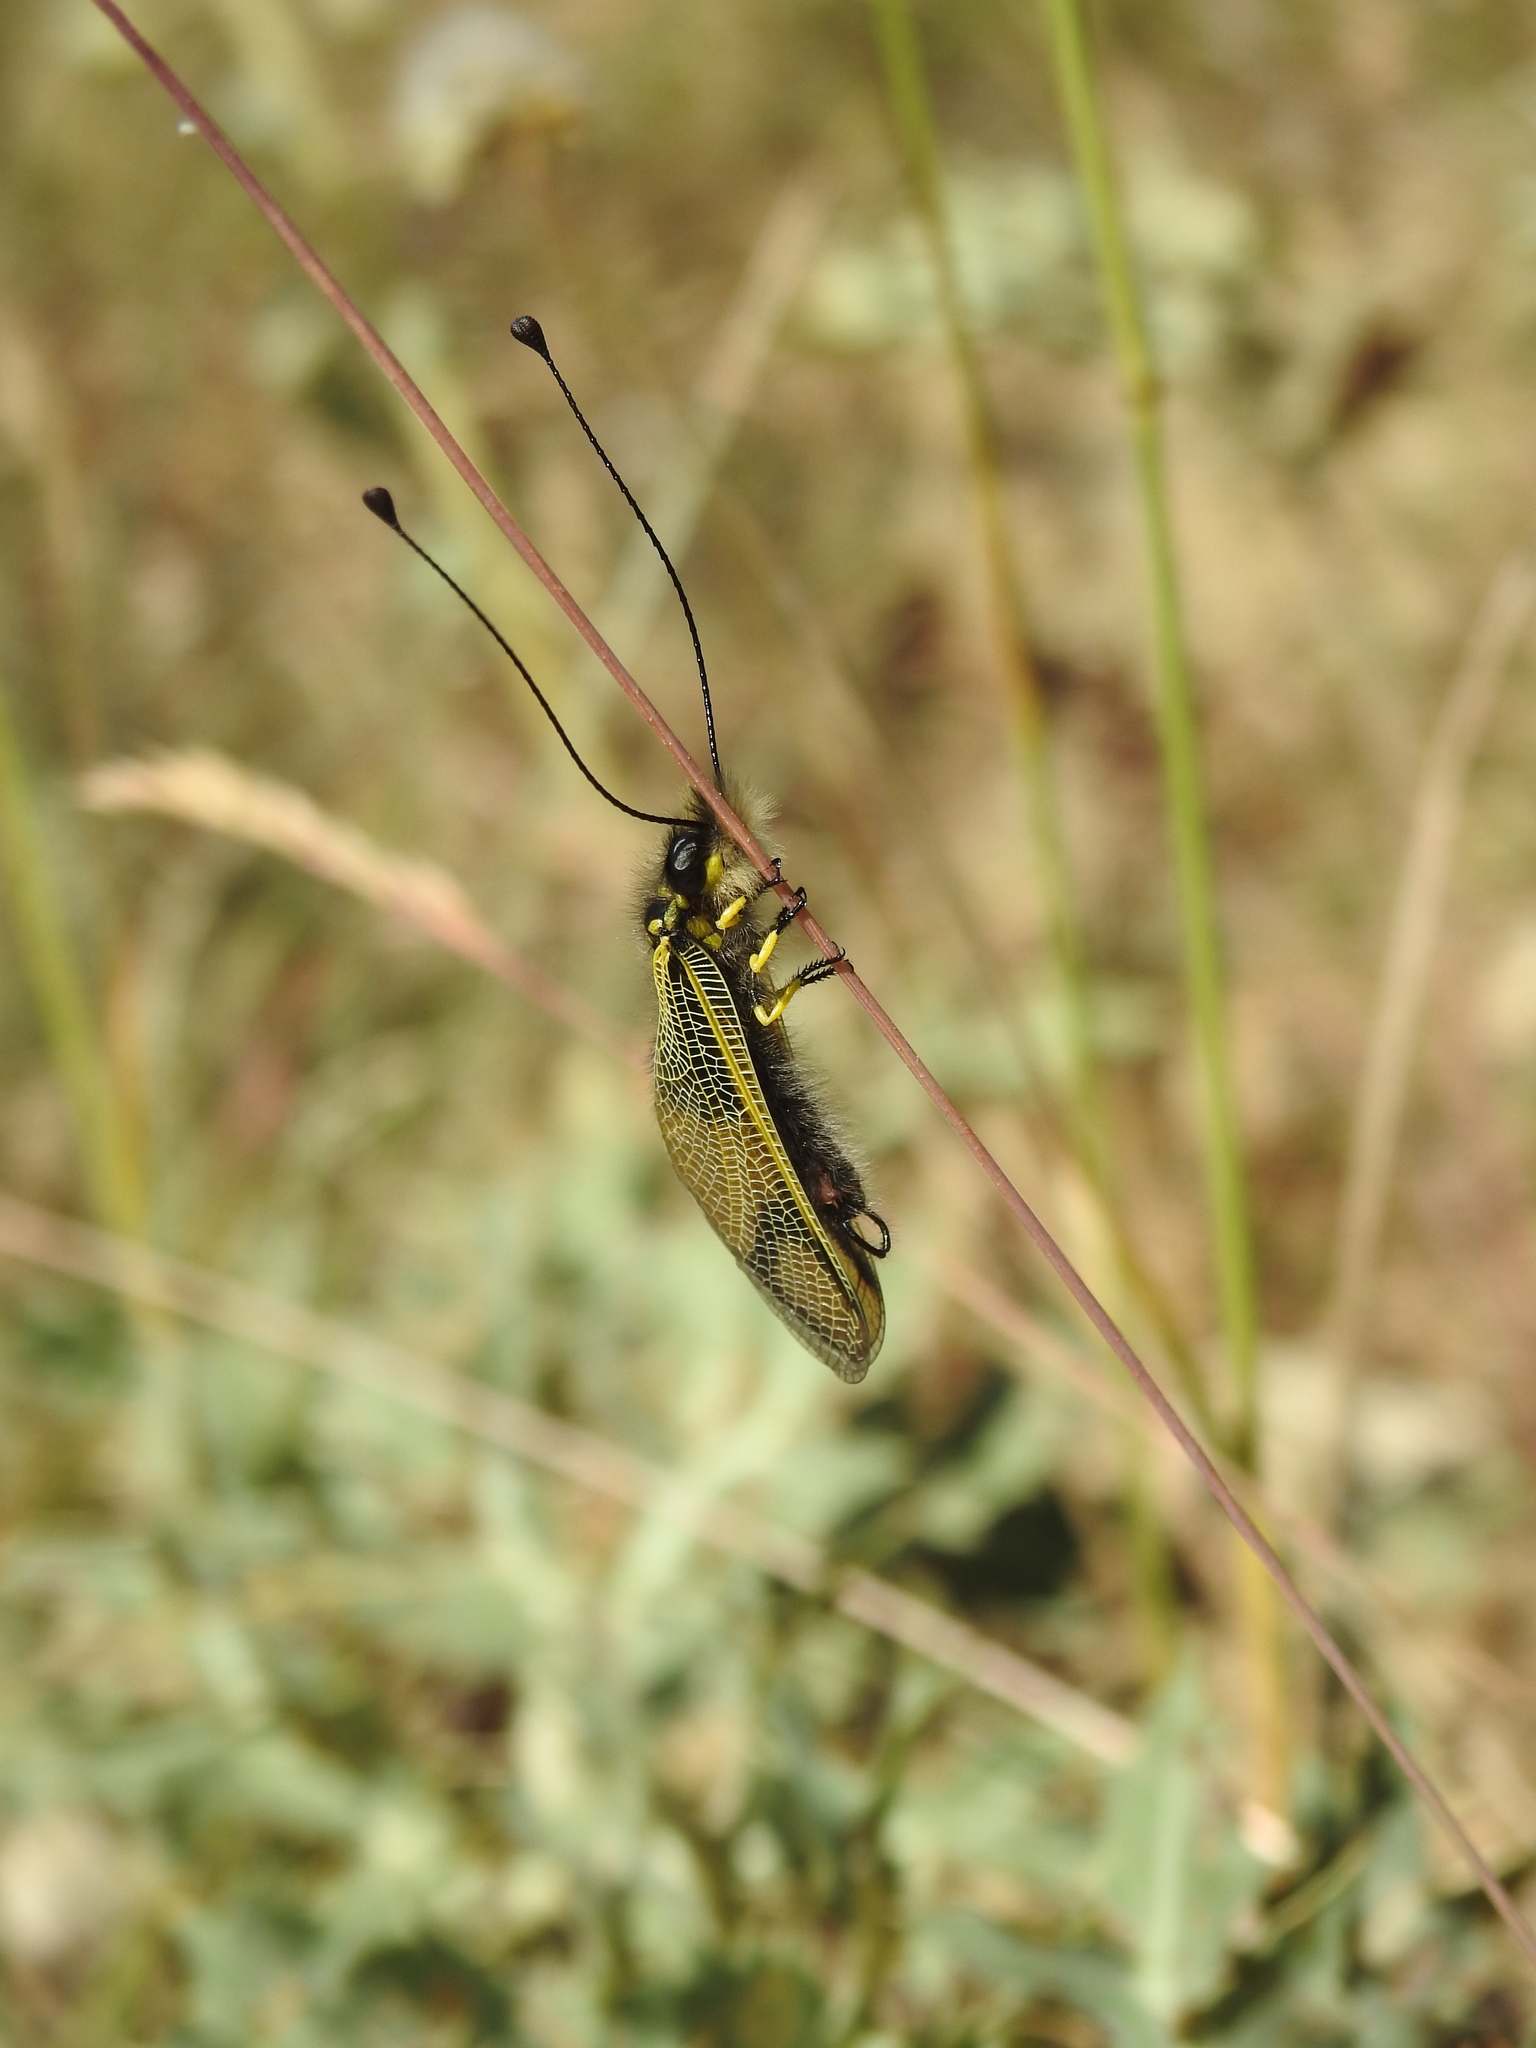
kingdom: Animalia
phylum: Arthropoda
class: Insecta
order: Neuroptera
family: Ascalaphidae
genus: Libelloides
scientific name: Libelloides longicornis
